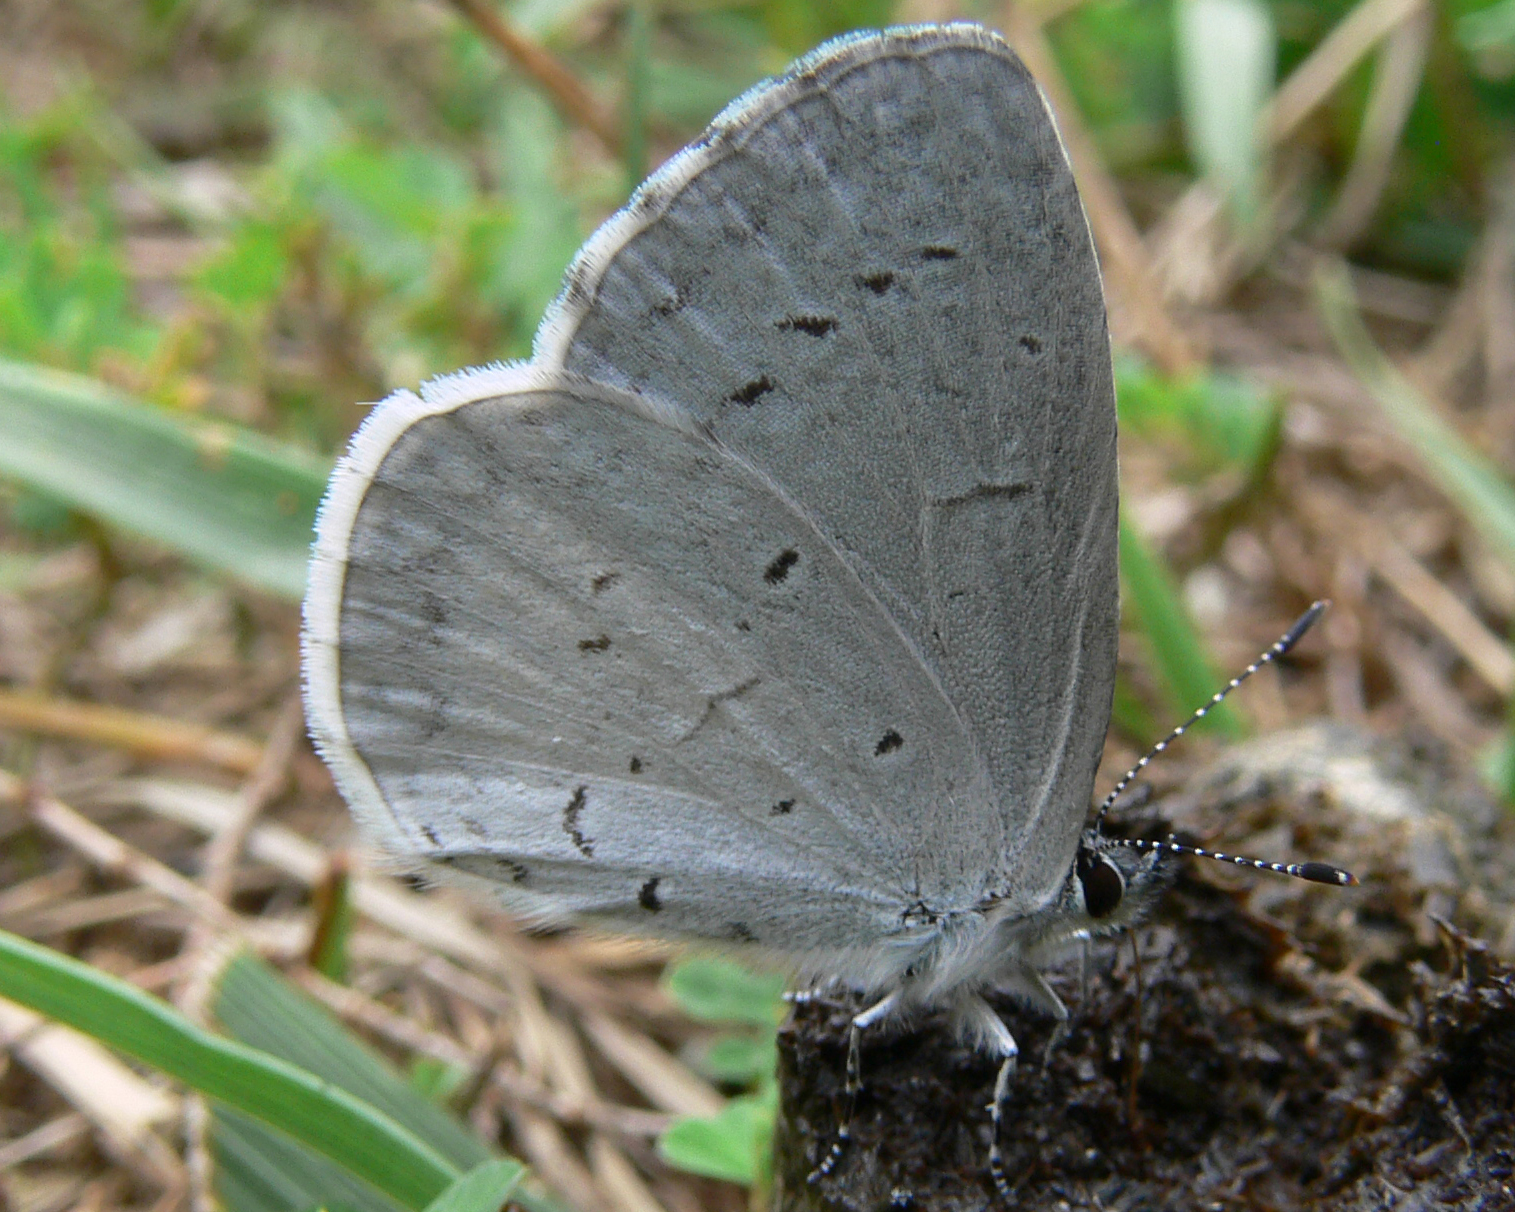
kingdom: Animalia
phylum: Arthropoda
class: Insecta
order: Lepidoptera
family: Lycaenidae
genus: Cyaniris
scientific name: Cyaniris neglecta
